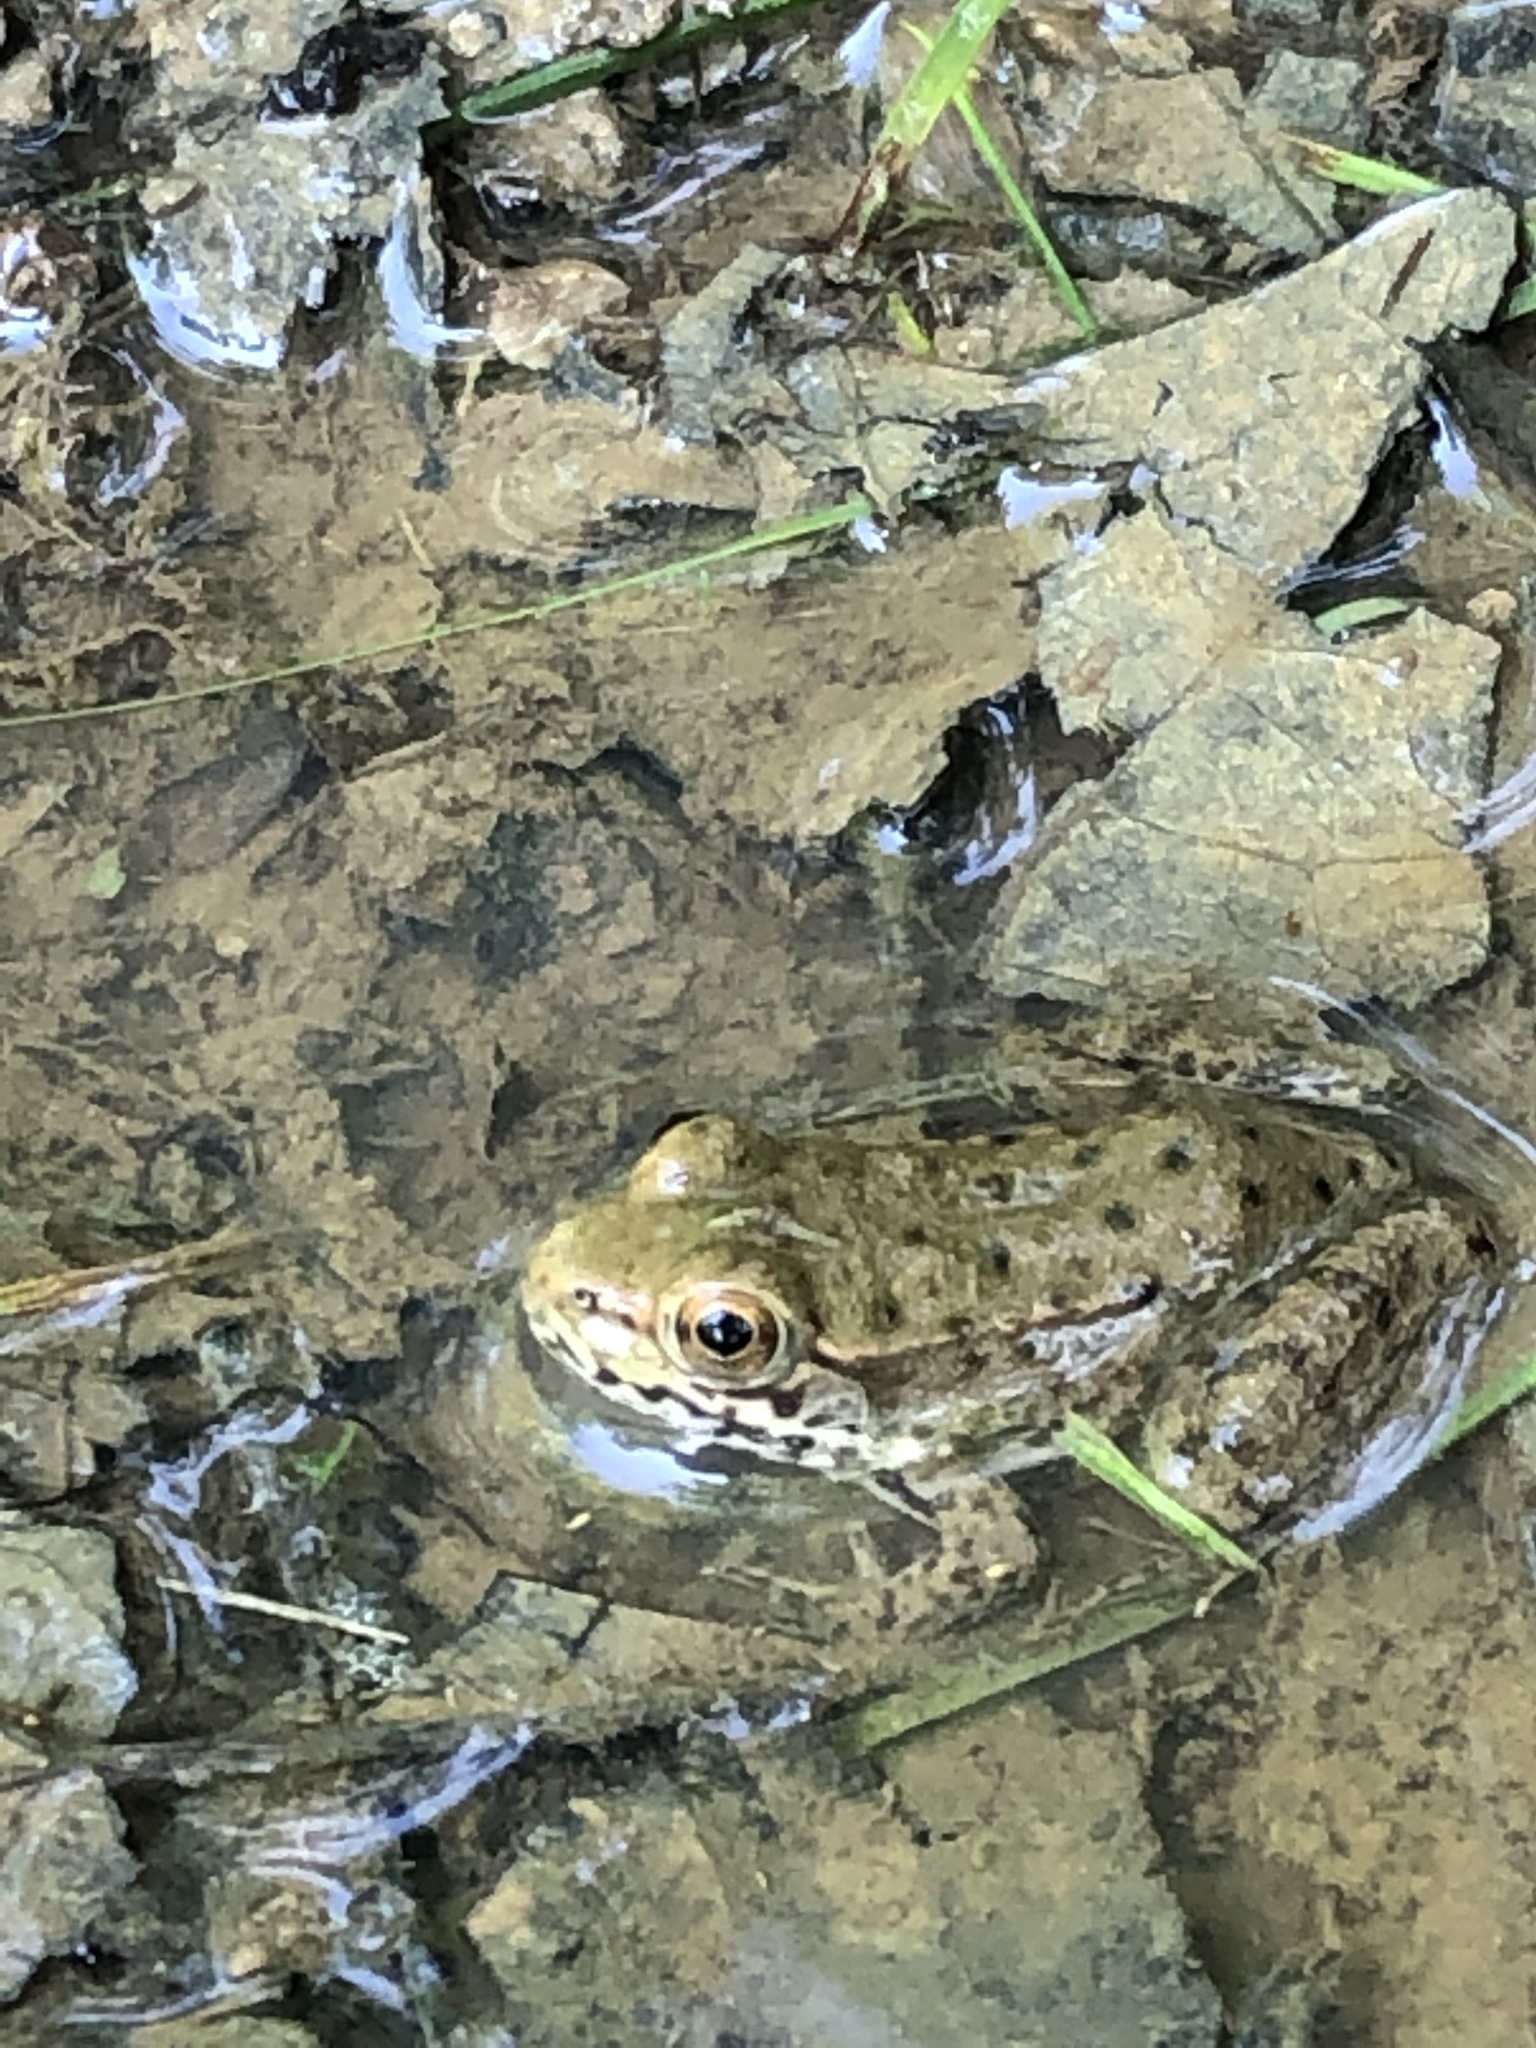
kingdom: Animalia
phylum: Chordata
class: Amphibia
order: Anura
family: Ranidae
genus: Lithobates
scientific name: Lithobates clamitans
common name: Green frog
